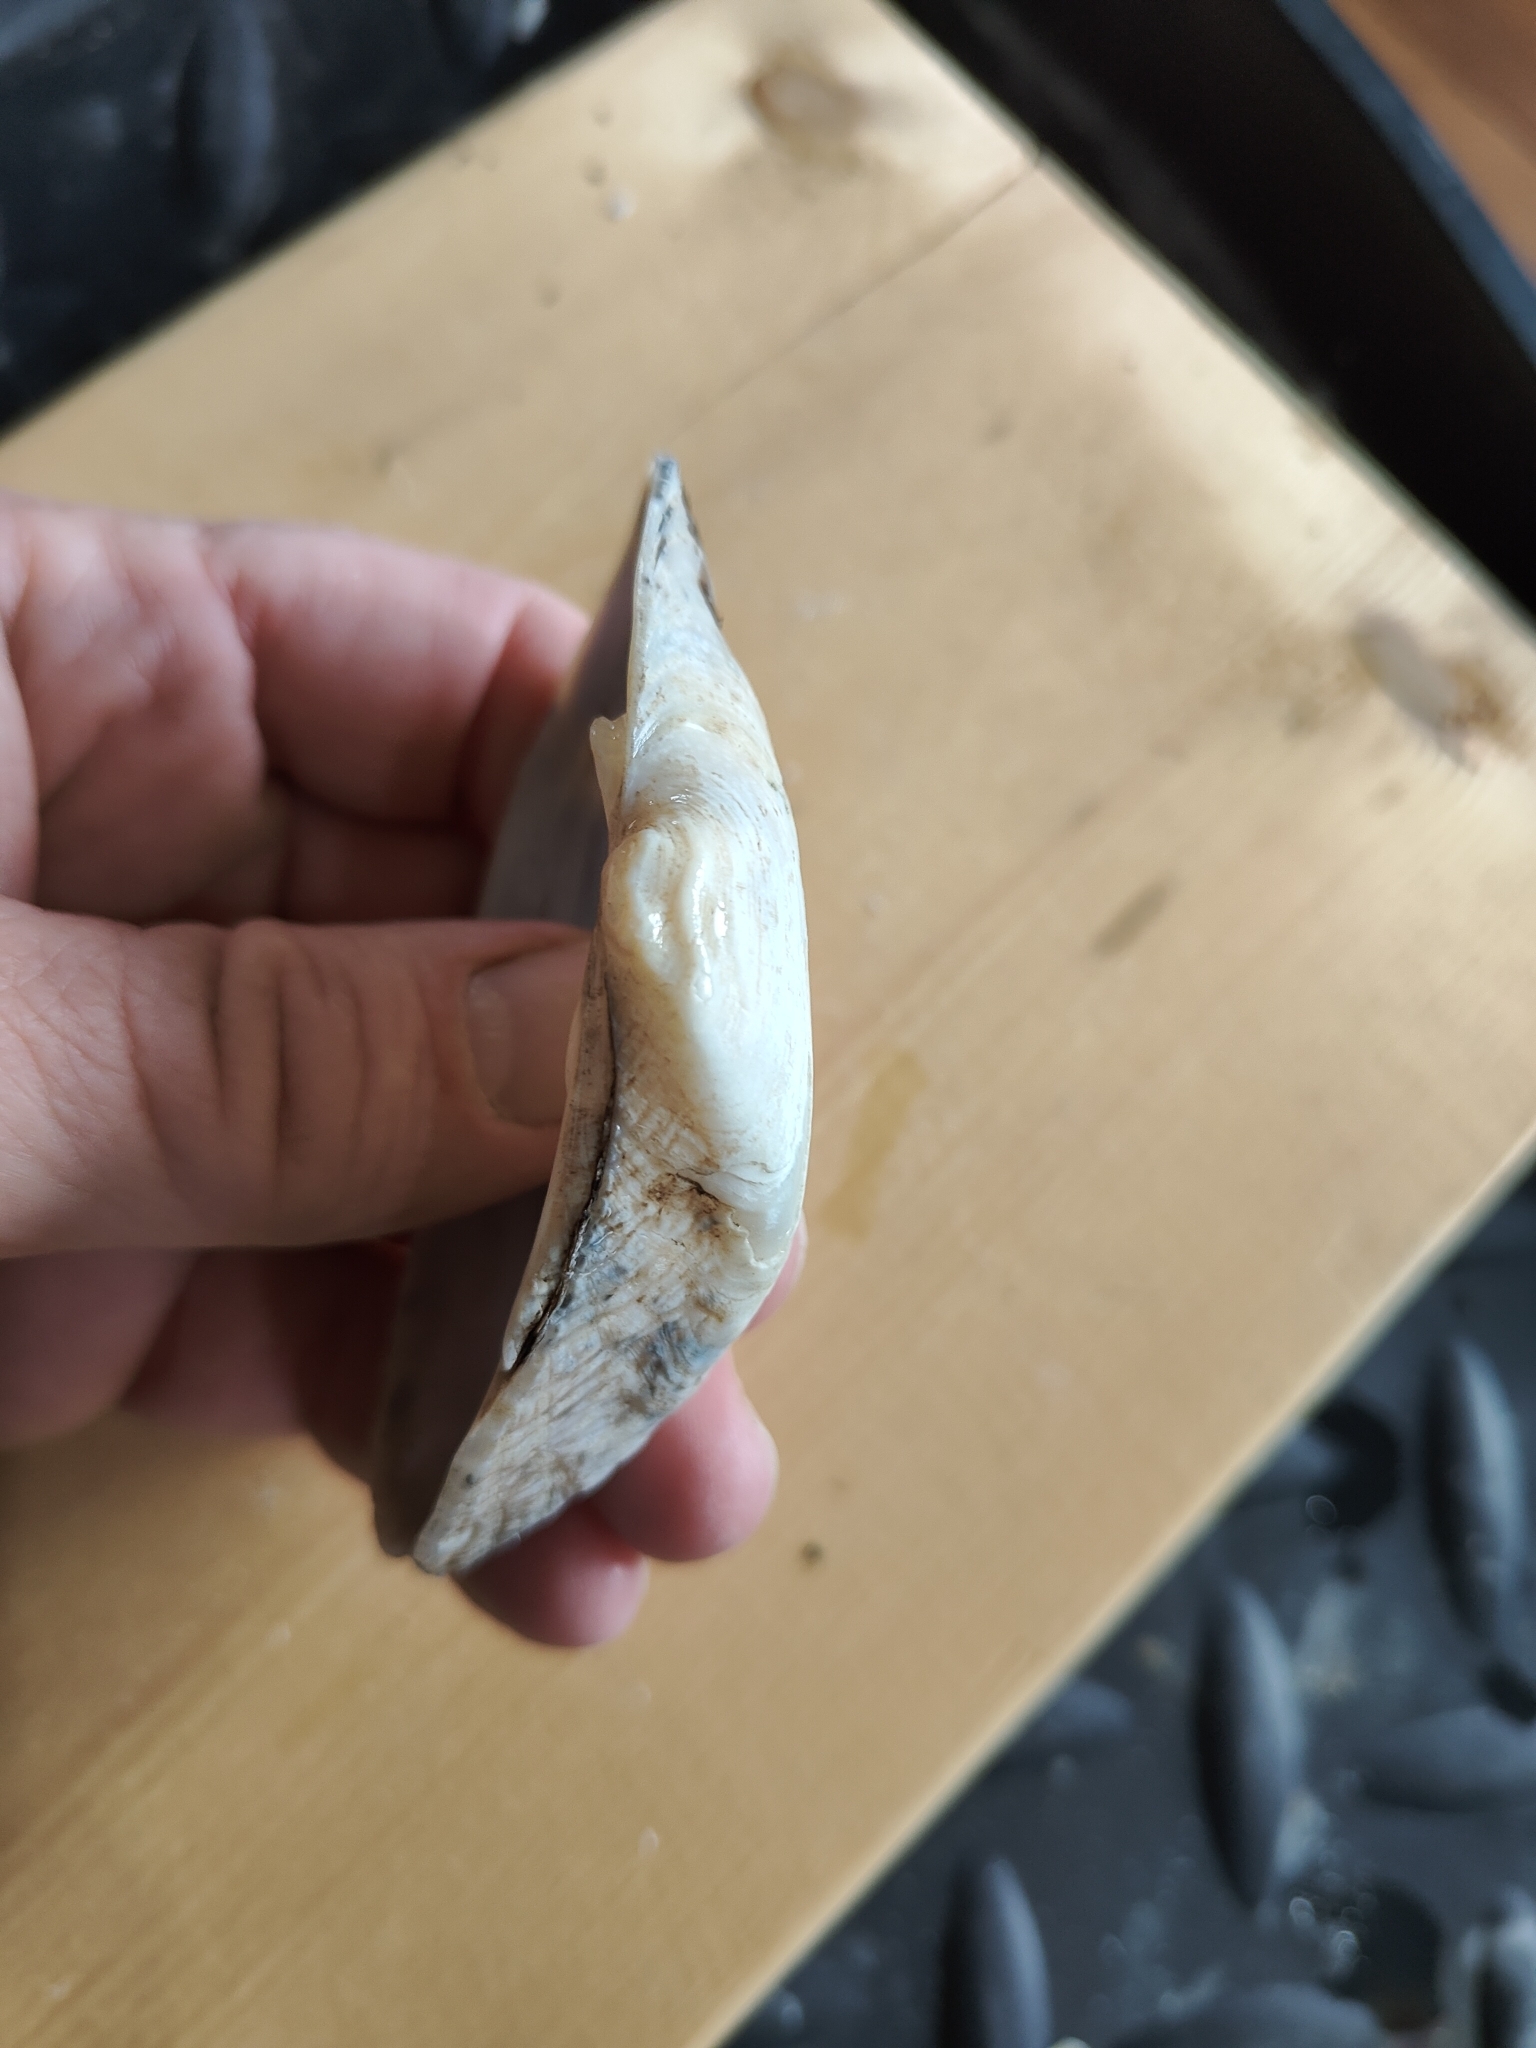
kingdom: Animalia
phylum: Mollusca
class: Bivalvia
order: Unionida
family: Unionidae
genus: Alasmidonta
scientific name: Alasmidonta marginata
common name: Elktoe
